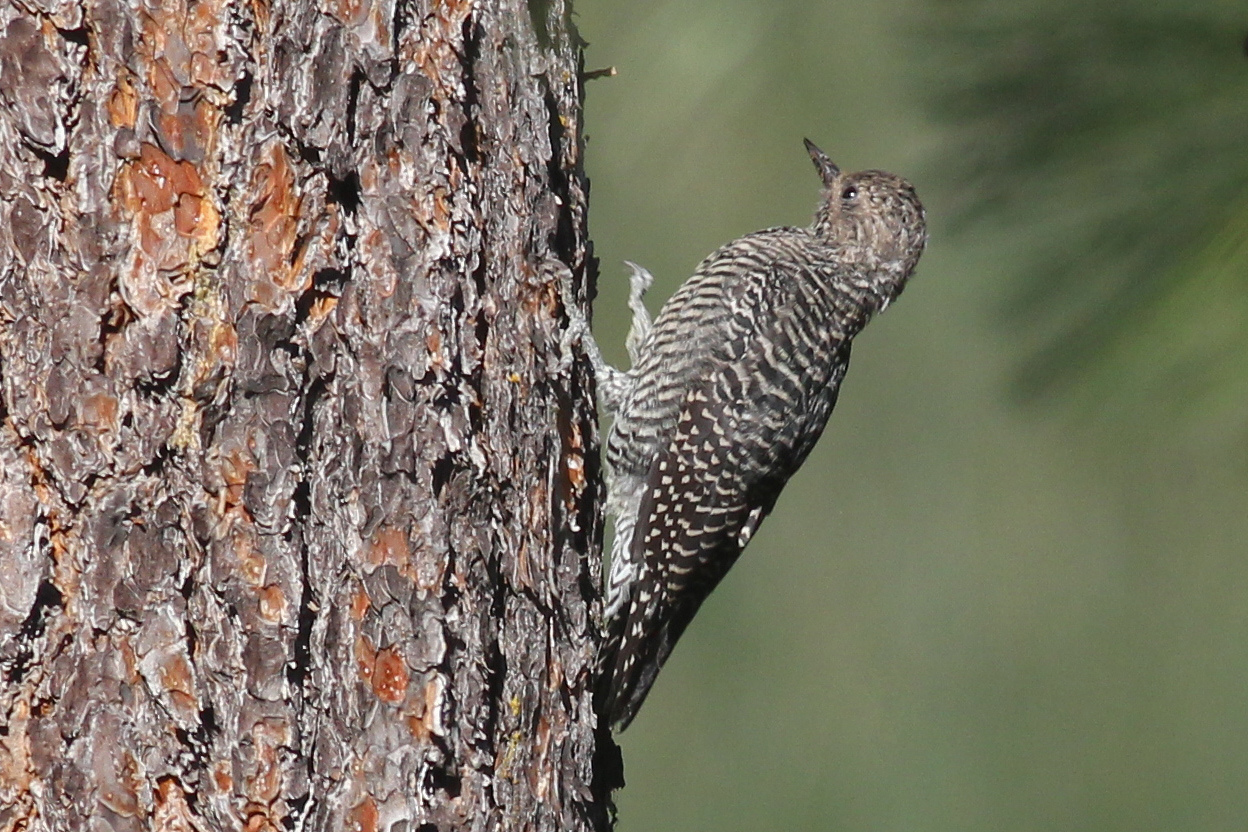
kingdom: Animalia
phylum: Chordata
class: Aves
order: Piciformes
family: Picidae
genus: Sphyrapicus
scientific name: Sphyrapicus thyroideus
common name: Williamson's sapsucker
